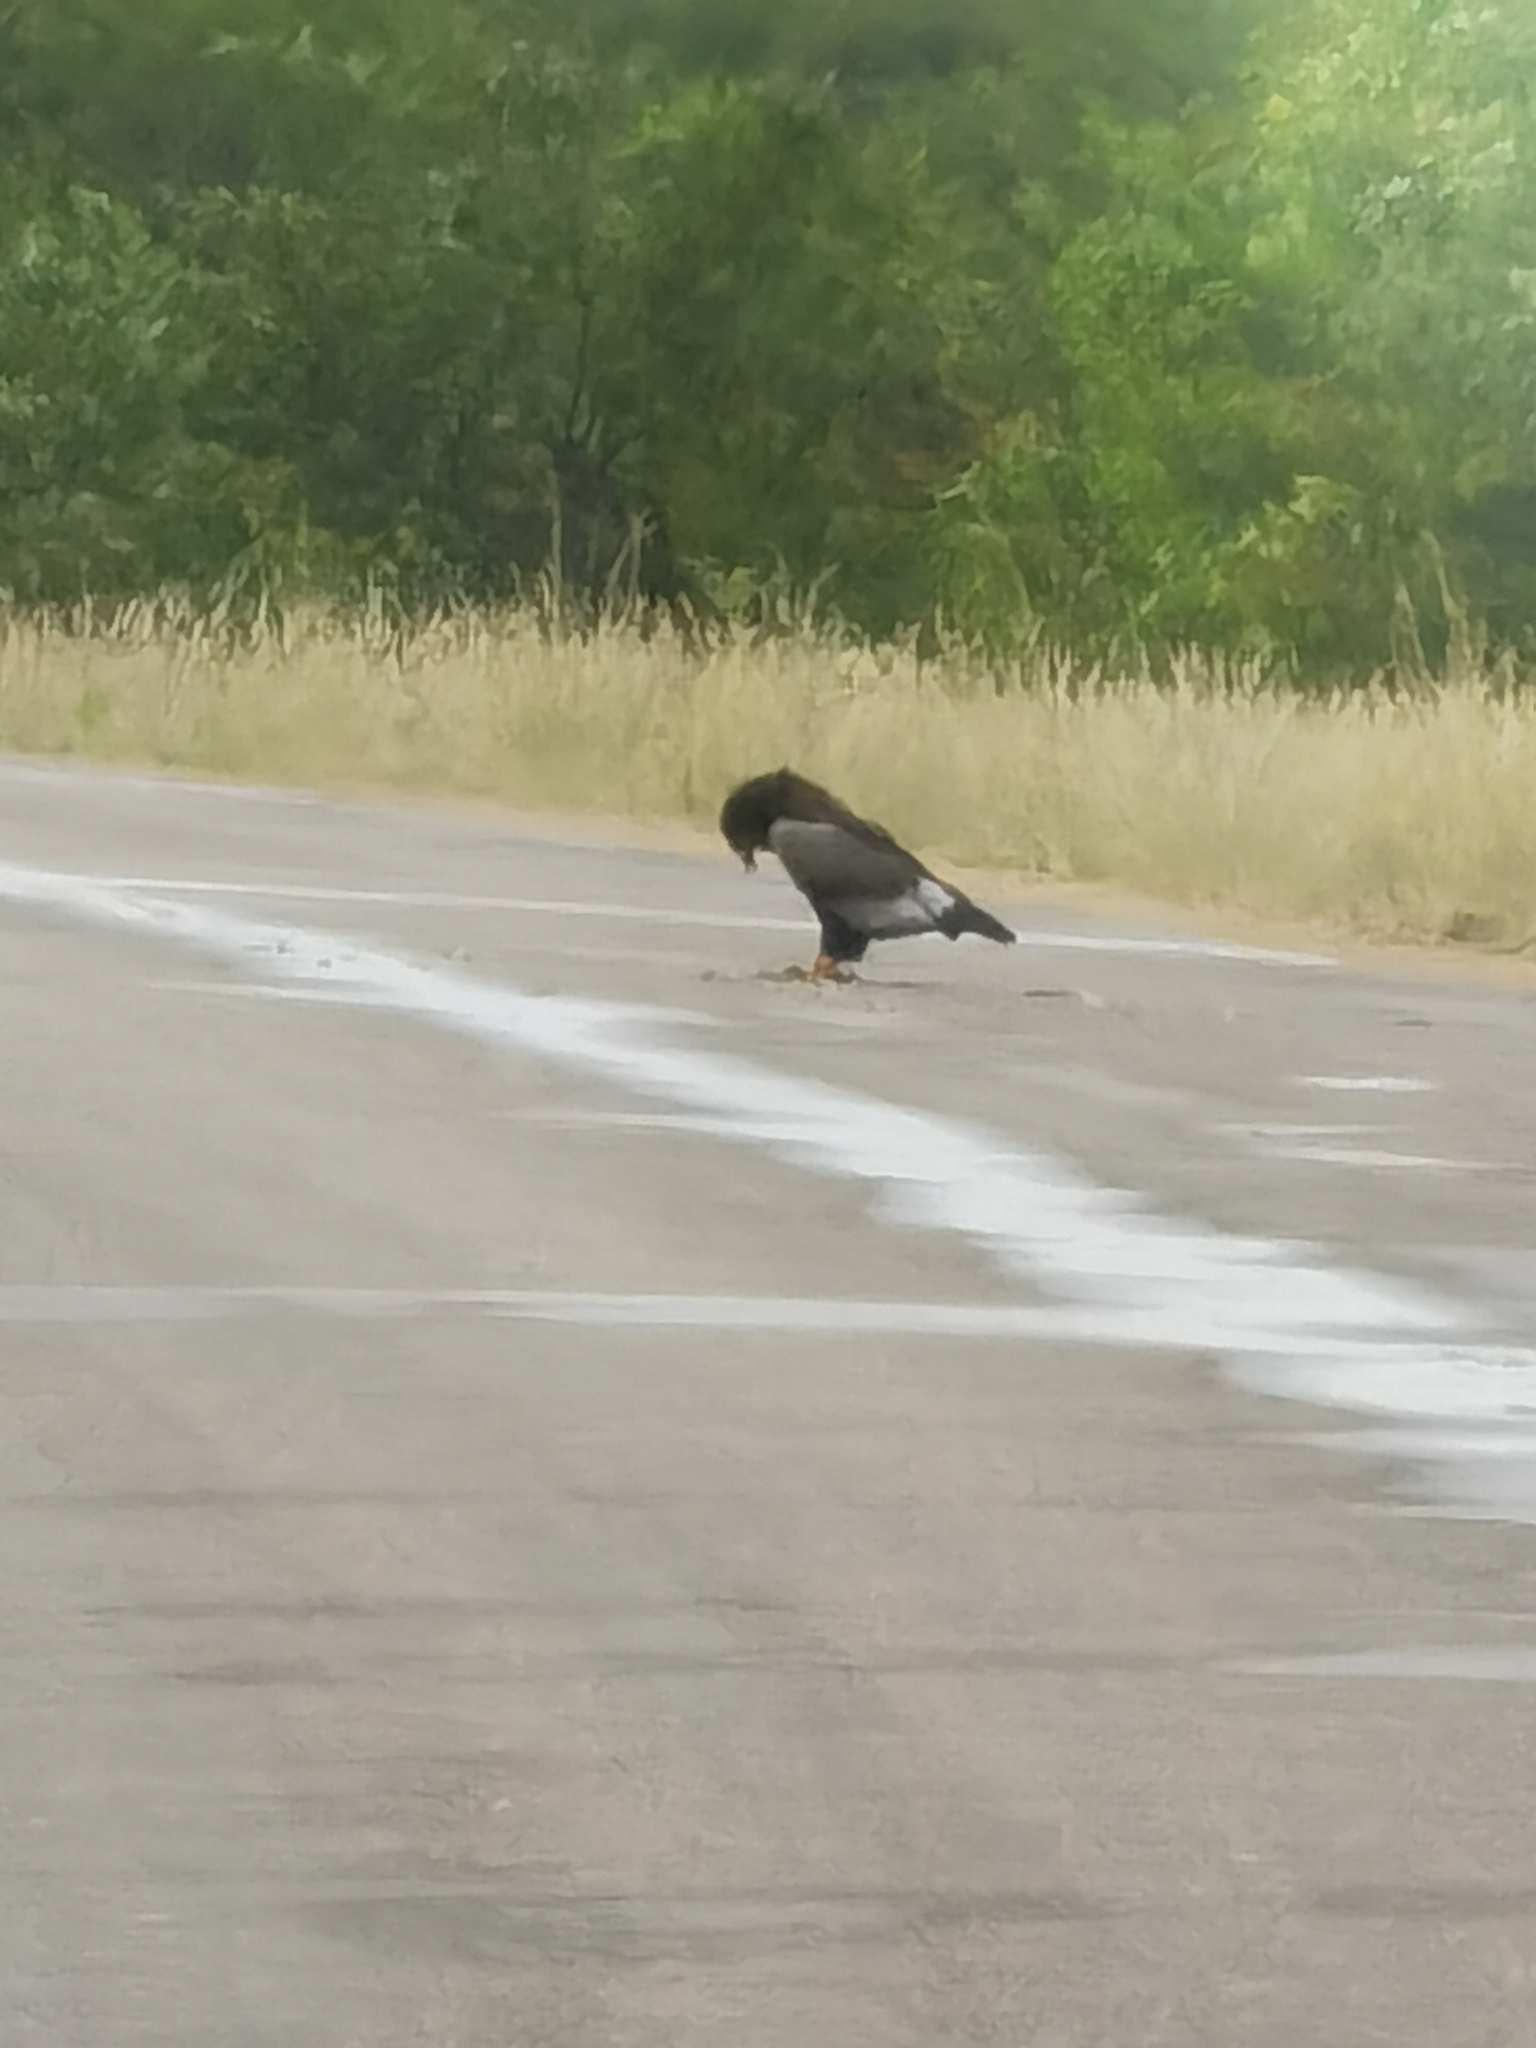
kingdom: Animalia
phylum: Chordata
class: Aves
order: Accipitriformes
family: Accipitridae
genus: Terathopius
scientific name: Terathopius ecaudatus
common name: Bateleur
